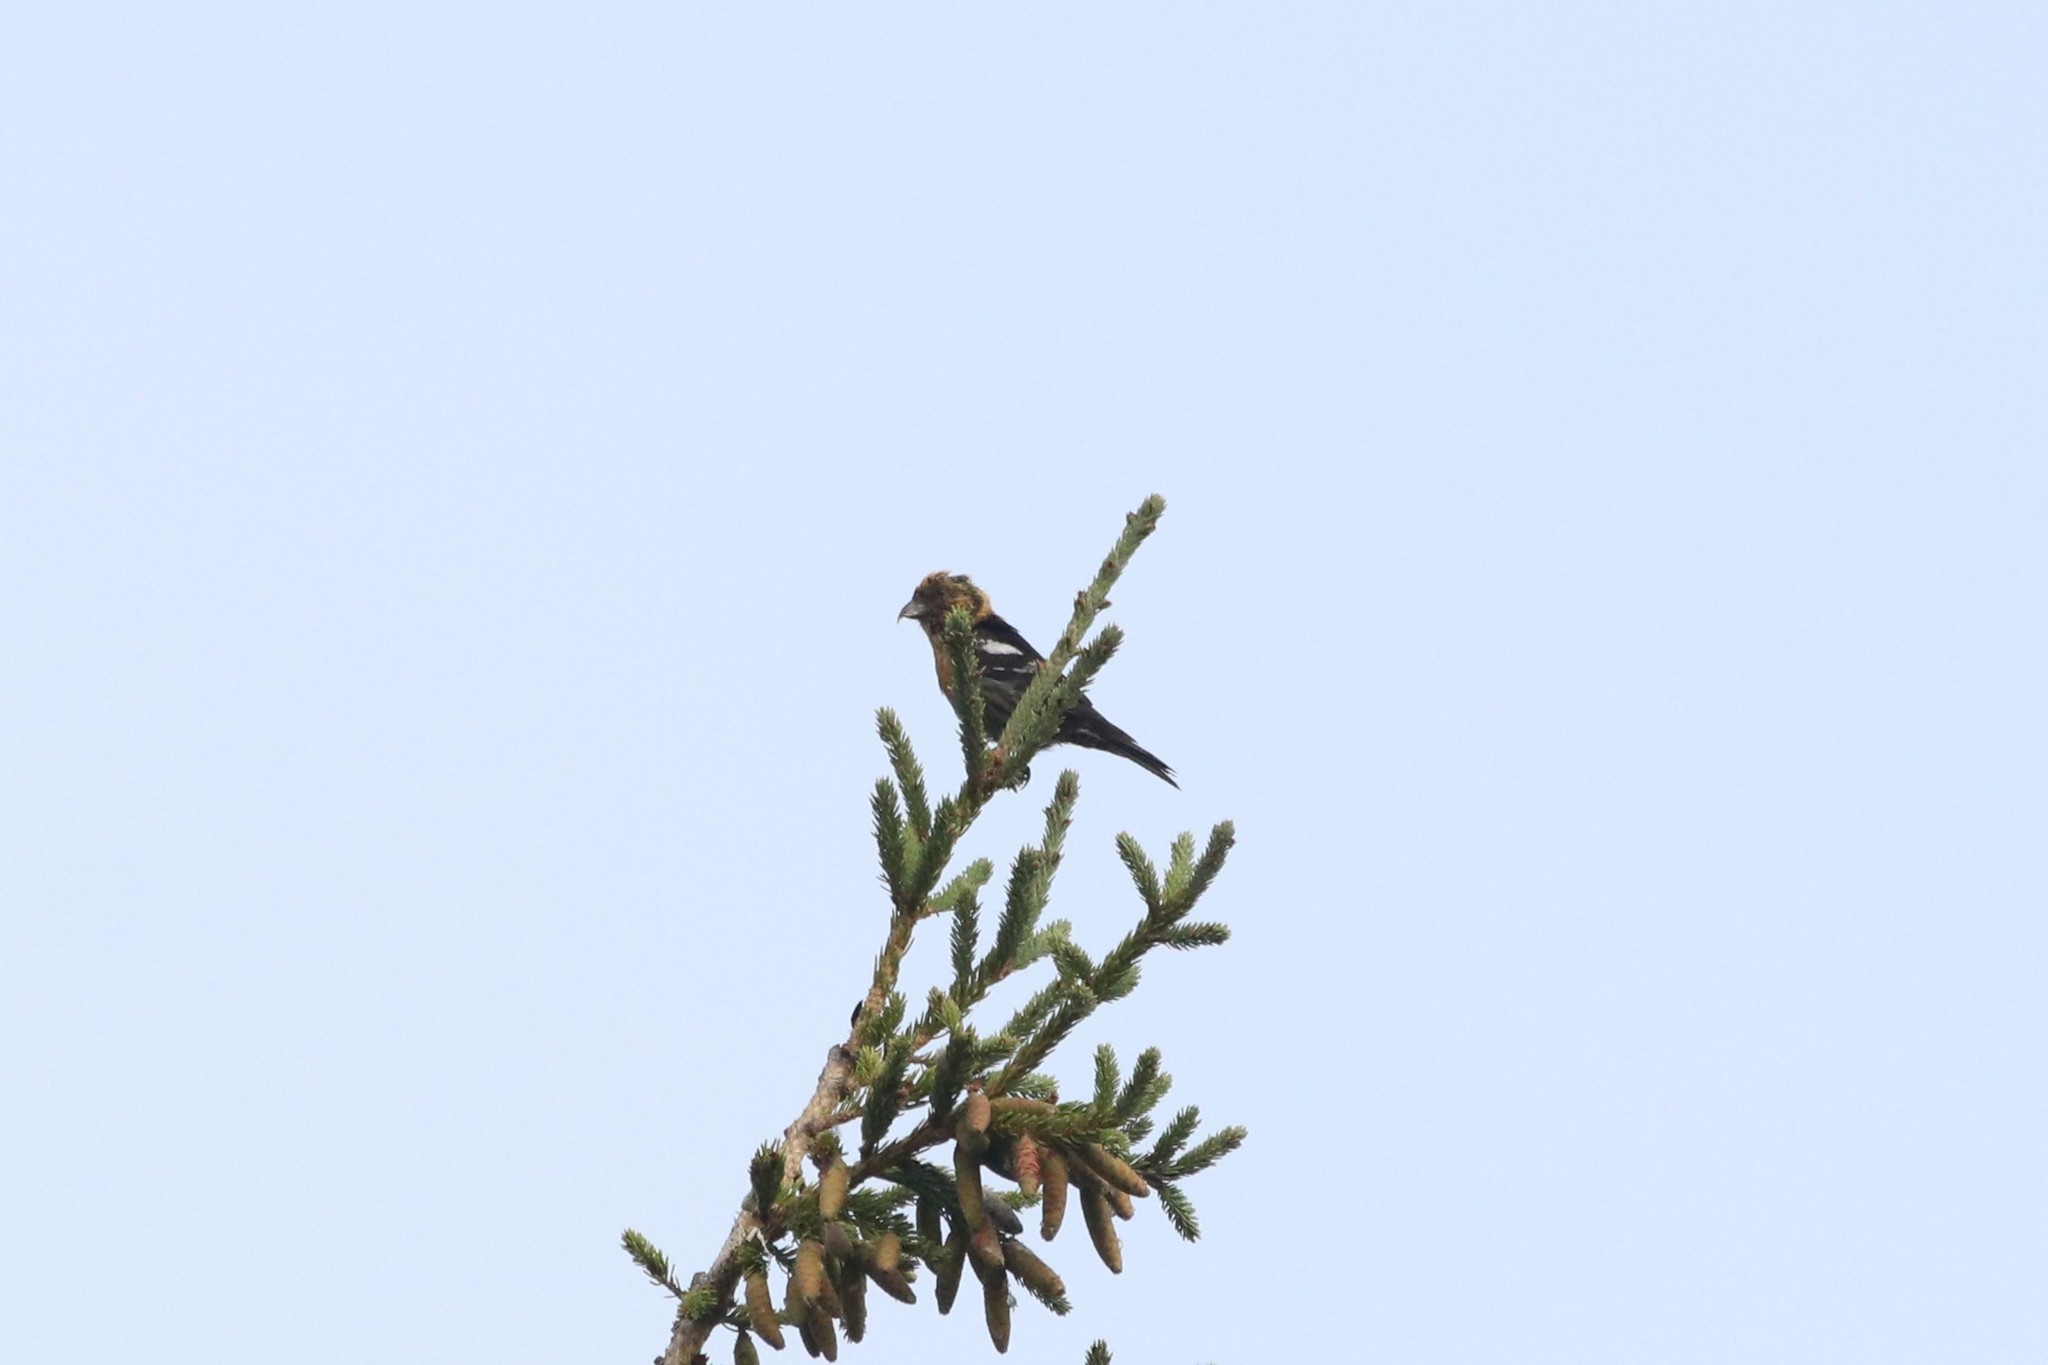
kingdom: Animalia
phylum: Chordata
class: Aves
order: Passeriformes
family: Fringillidae
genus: Loxia
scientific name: Loxia leucoptera
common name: Two-barred crossbill
